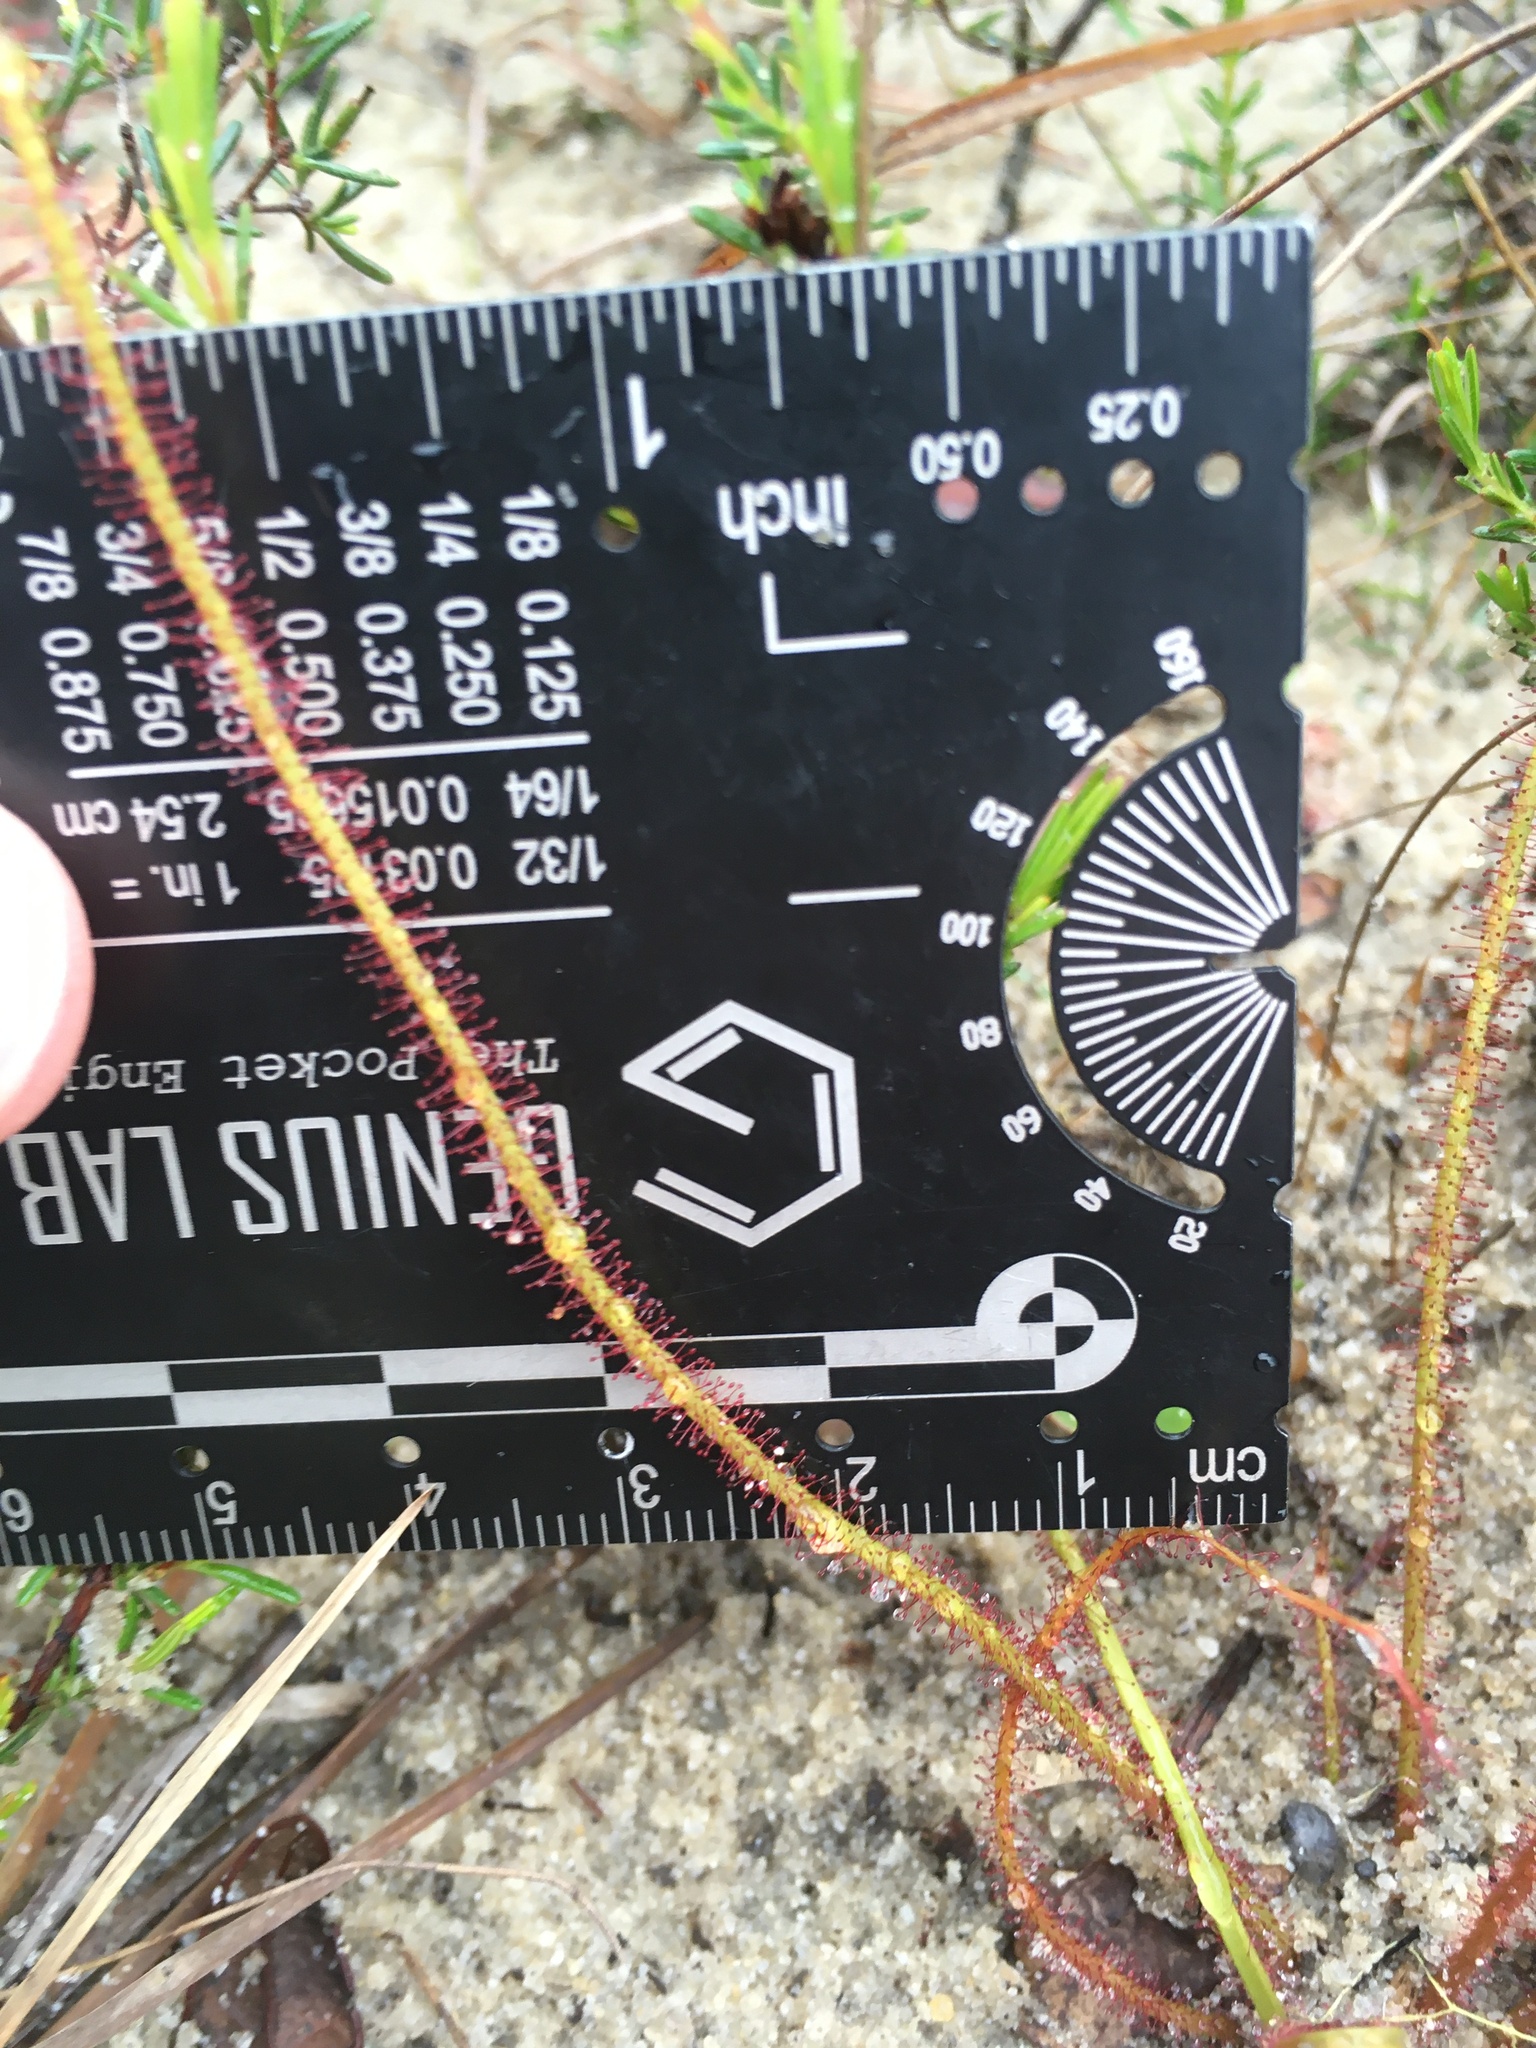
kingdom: Plantae
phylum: Tracheophyta
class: Magnoliopsida
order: Caryophyllales
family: Droseraceae
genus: Drosera
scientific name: Drosera filiformis
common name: Dew-thread
